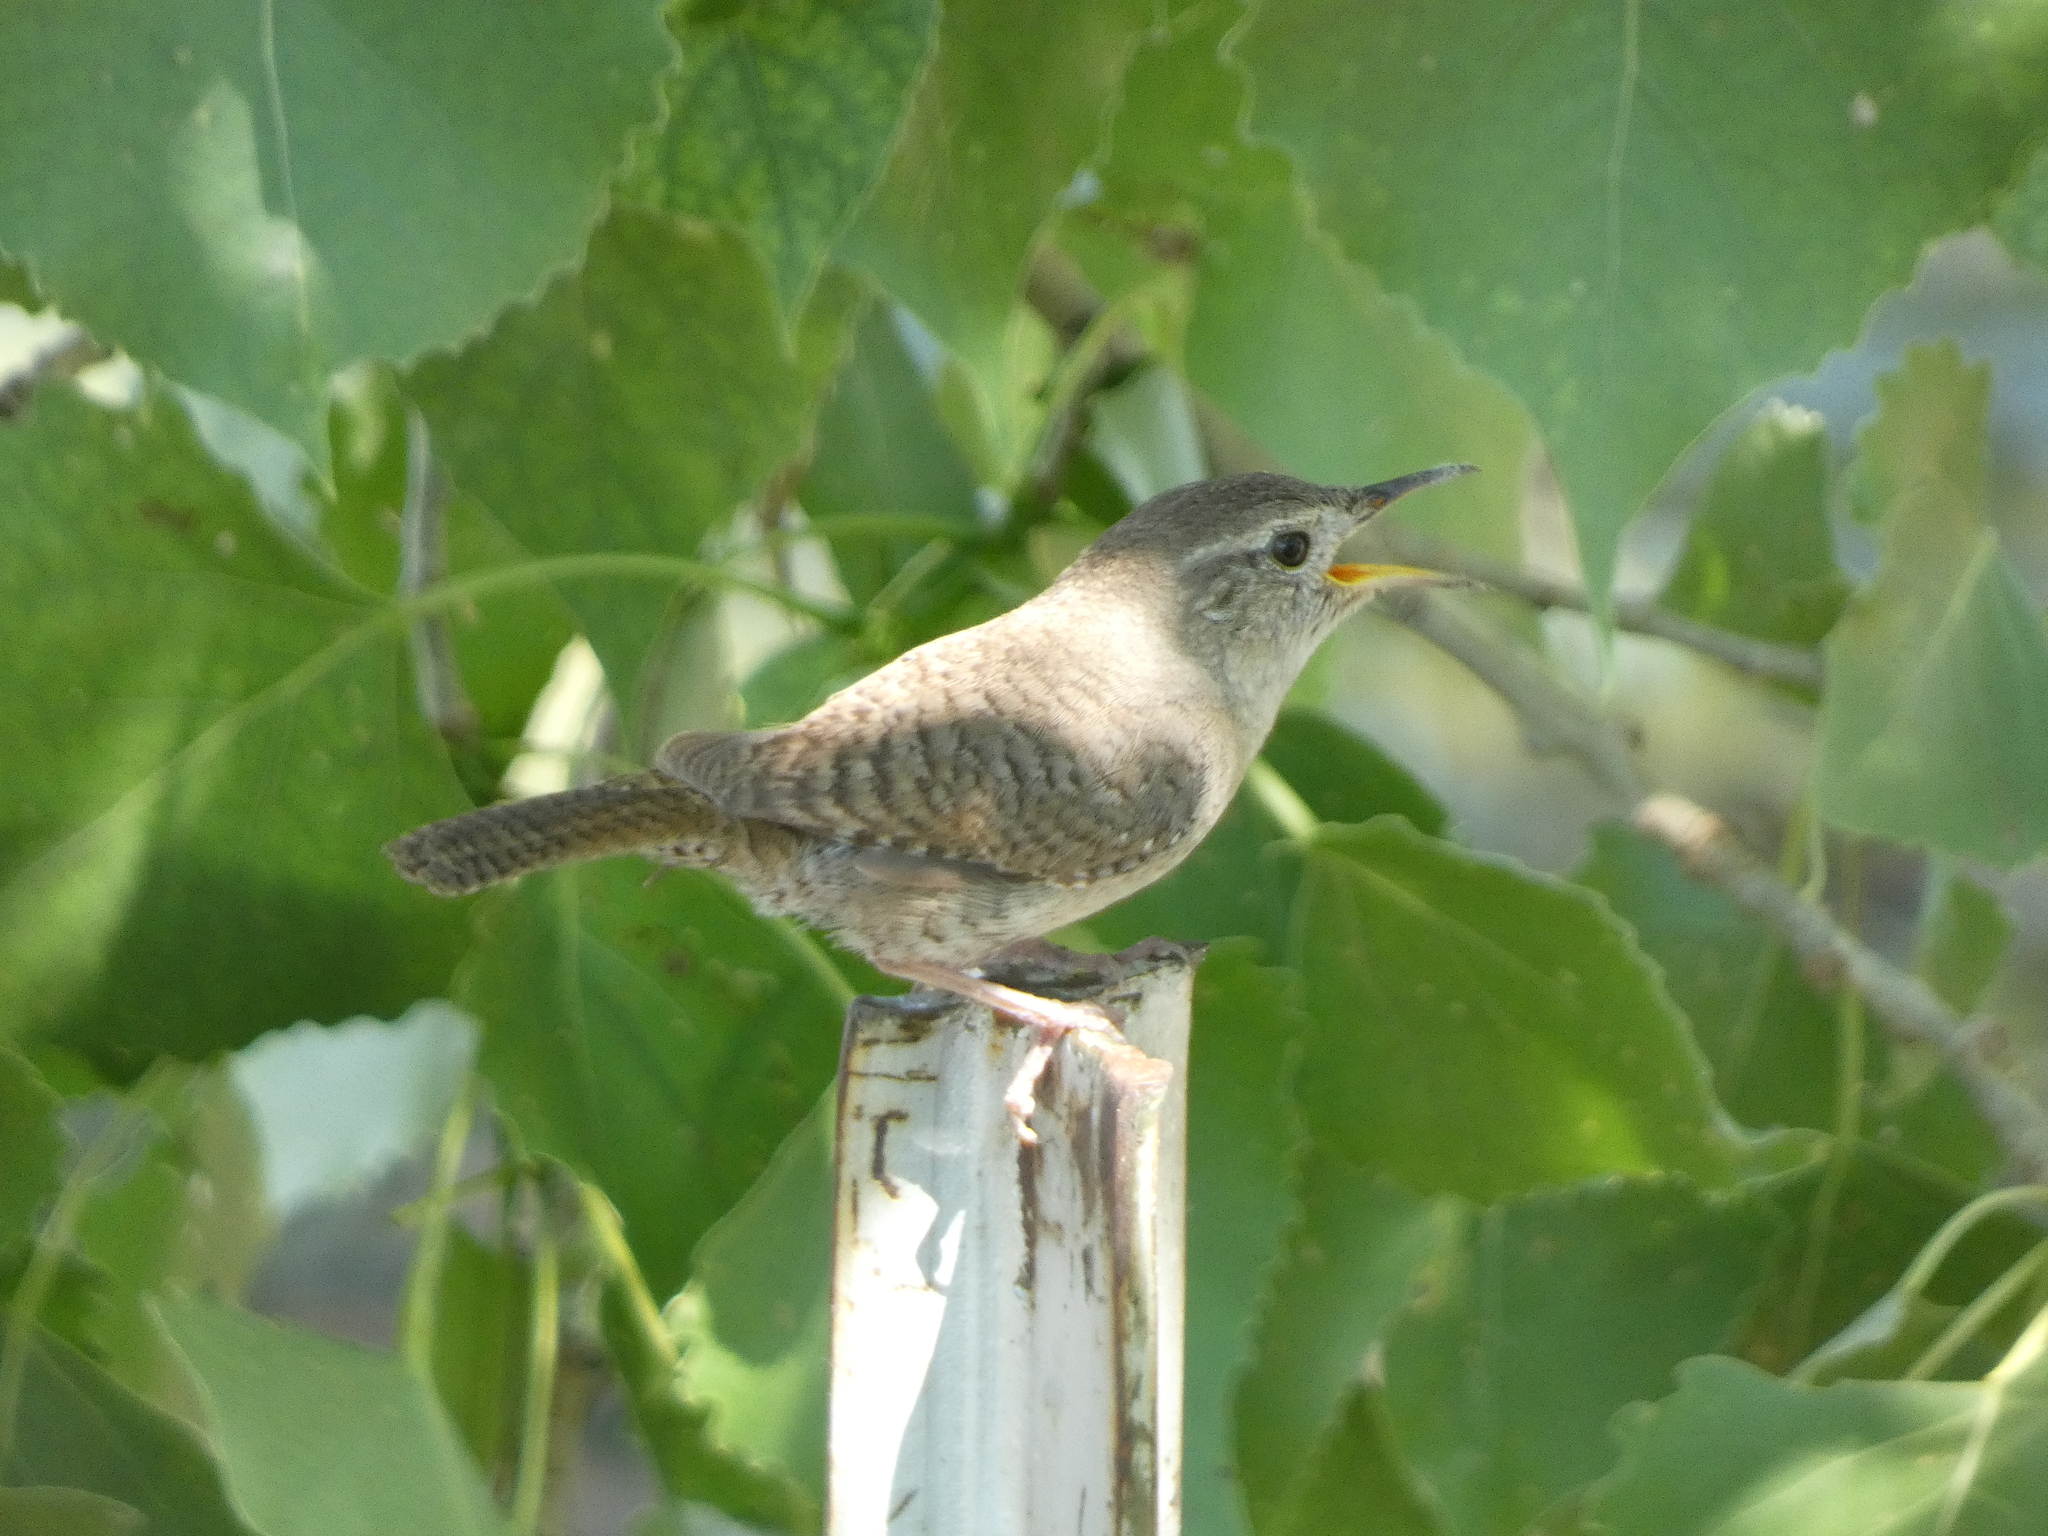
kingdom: Animalia
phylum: Chordata
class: Aves
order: Passeriformes
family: Troglodytidae
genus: Troglodytes
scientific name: Troglodytes aedon
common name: House wren
